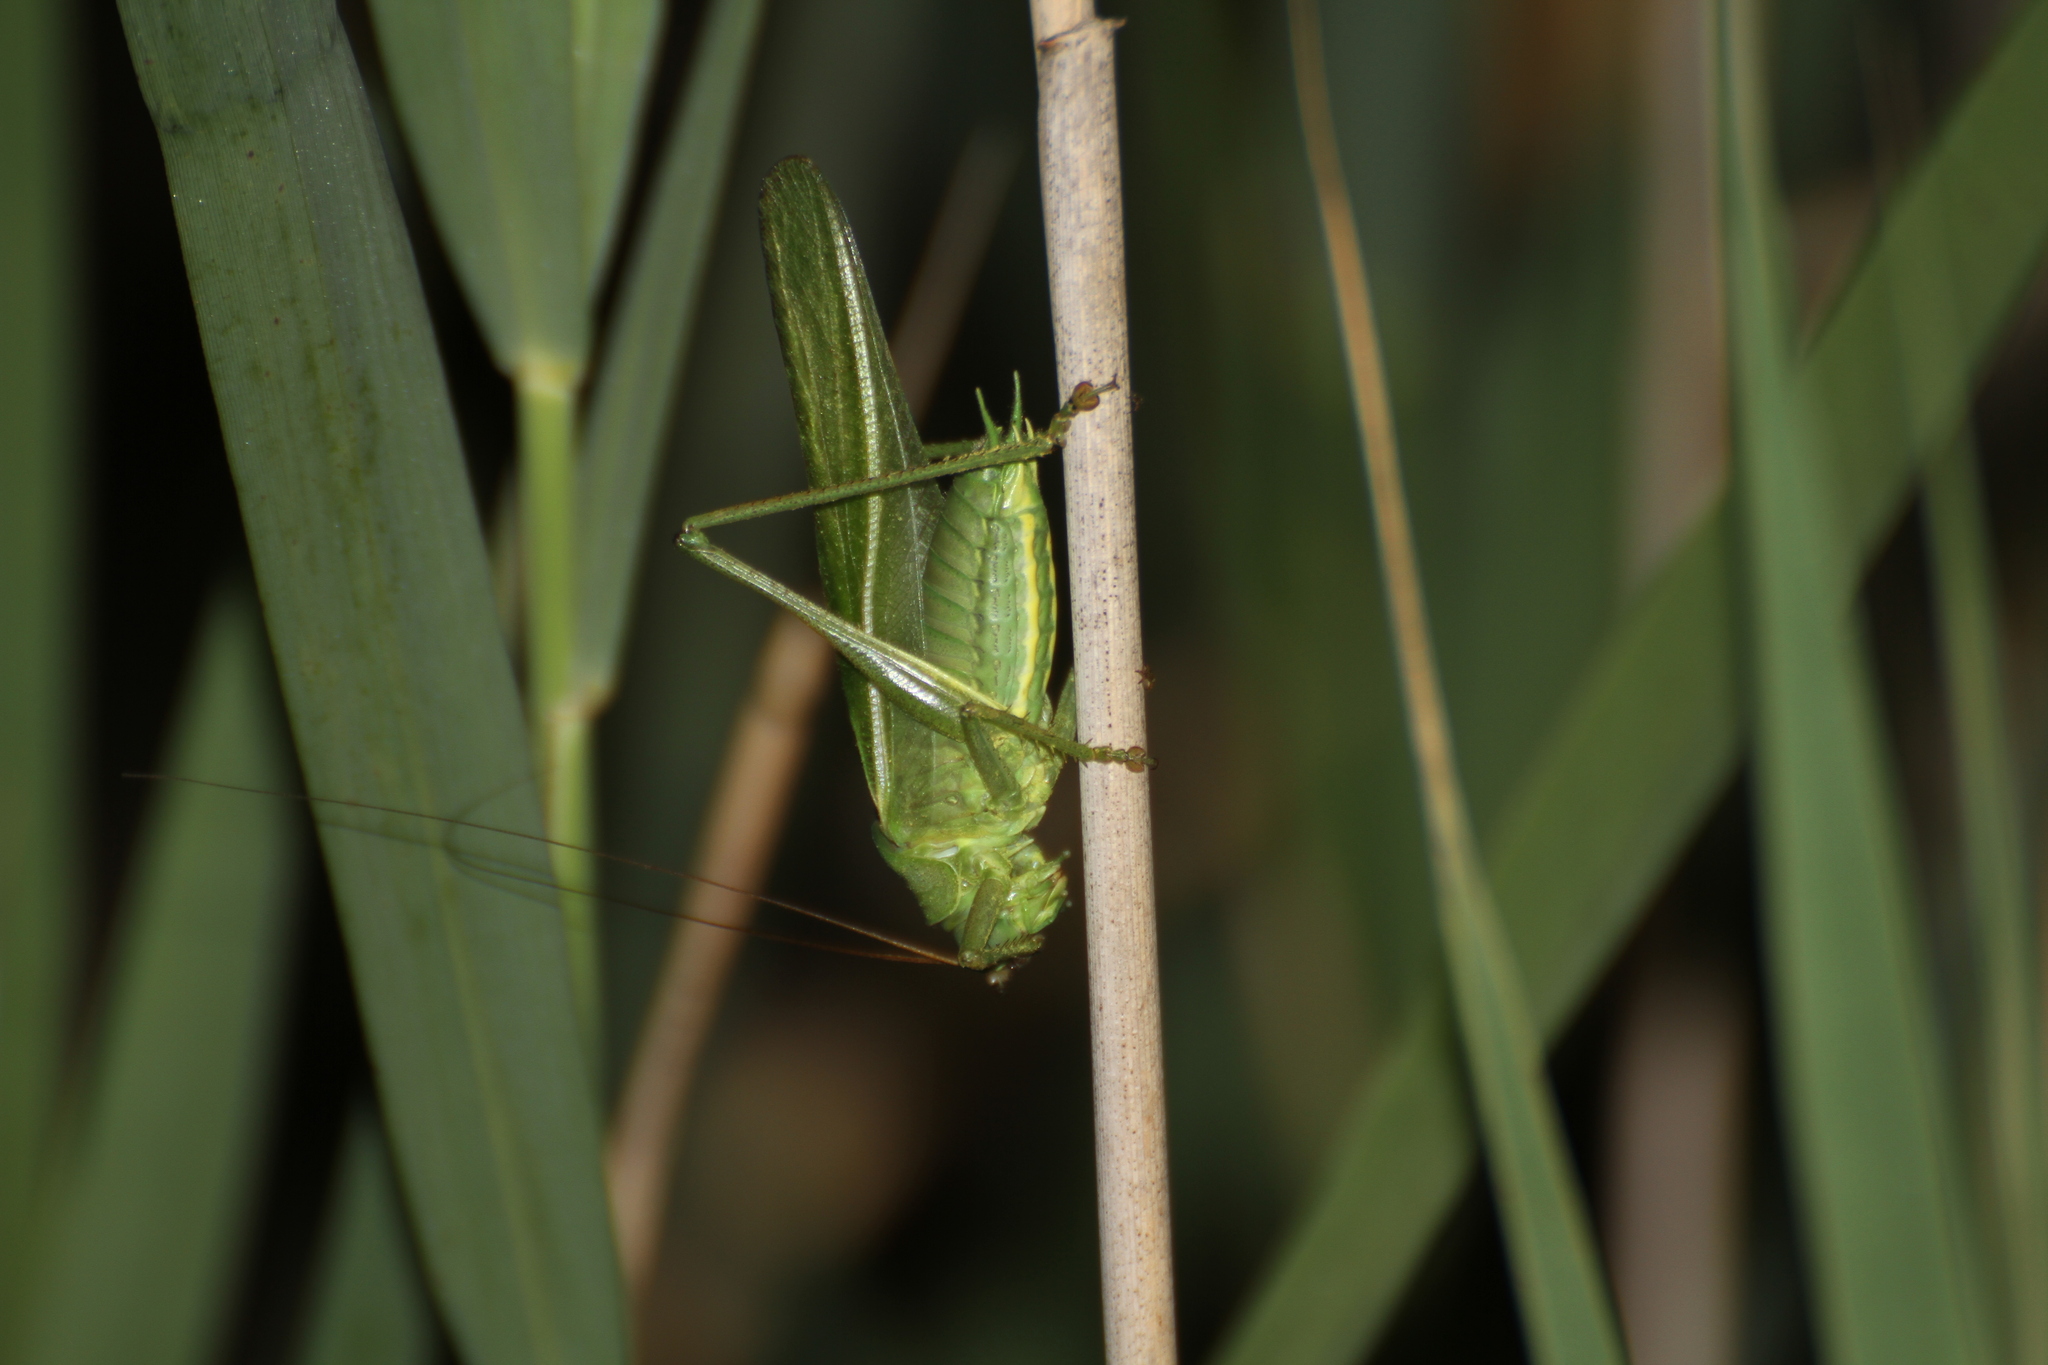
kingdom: Animalia
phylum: Arthropoda
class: Insecta
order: Orthoptera
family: Tettigoniidae
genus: Tettigonia
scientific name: Tettigonia viridissima
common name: Great green bush-cricket
